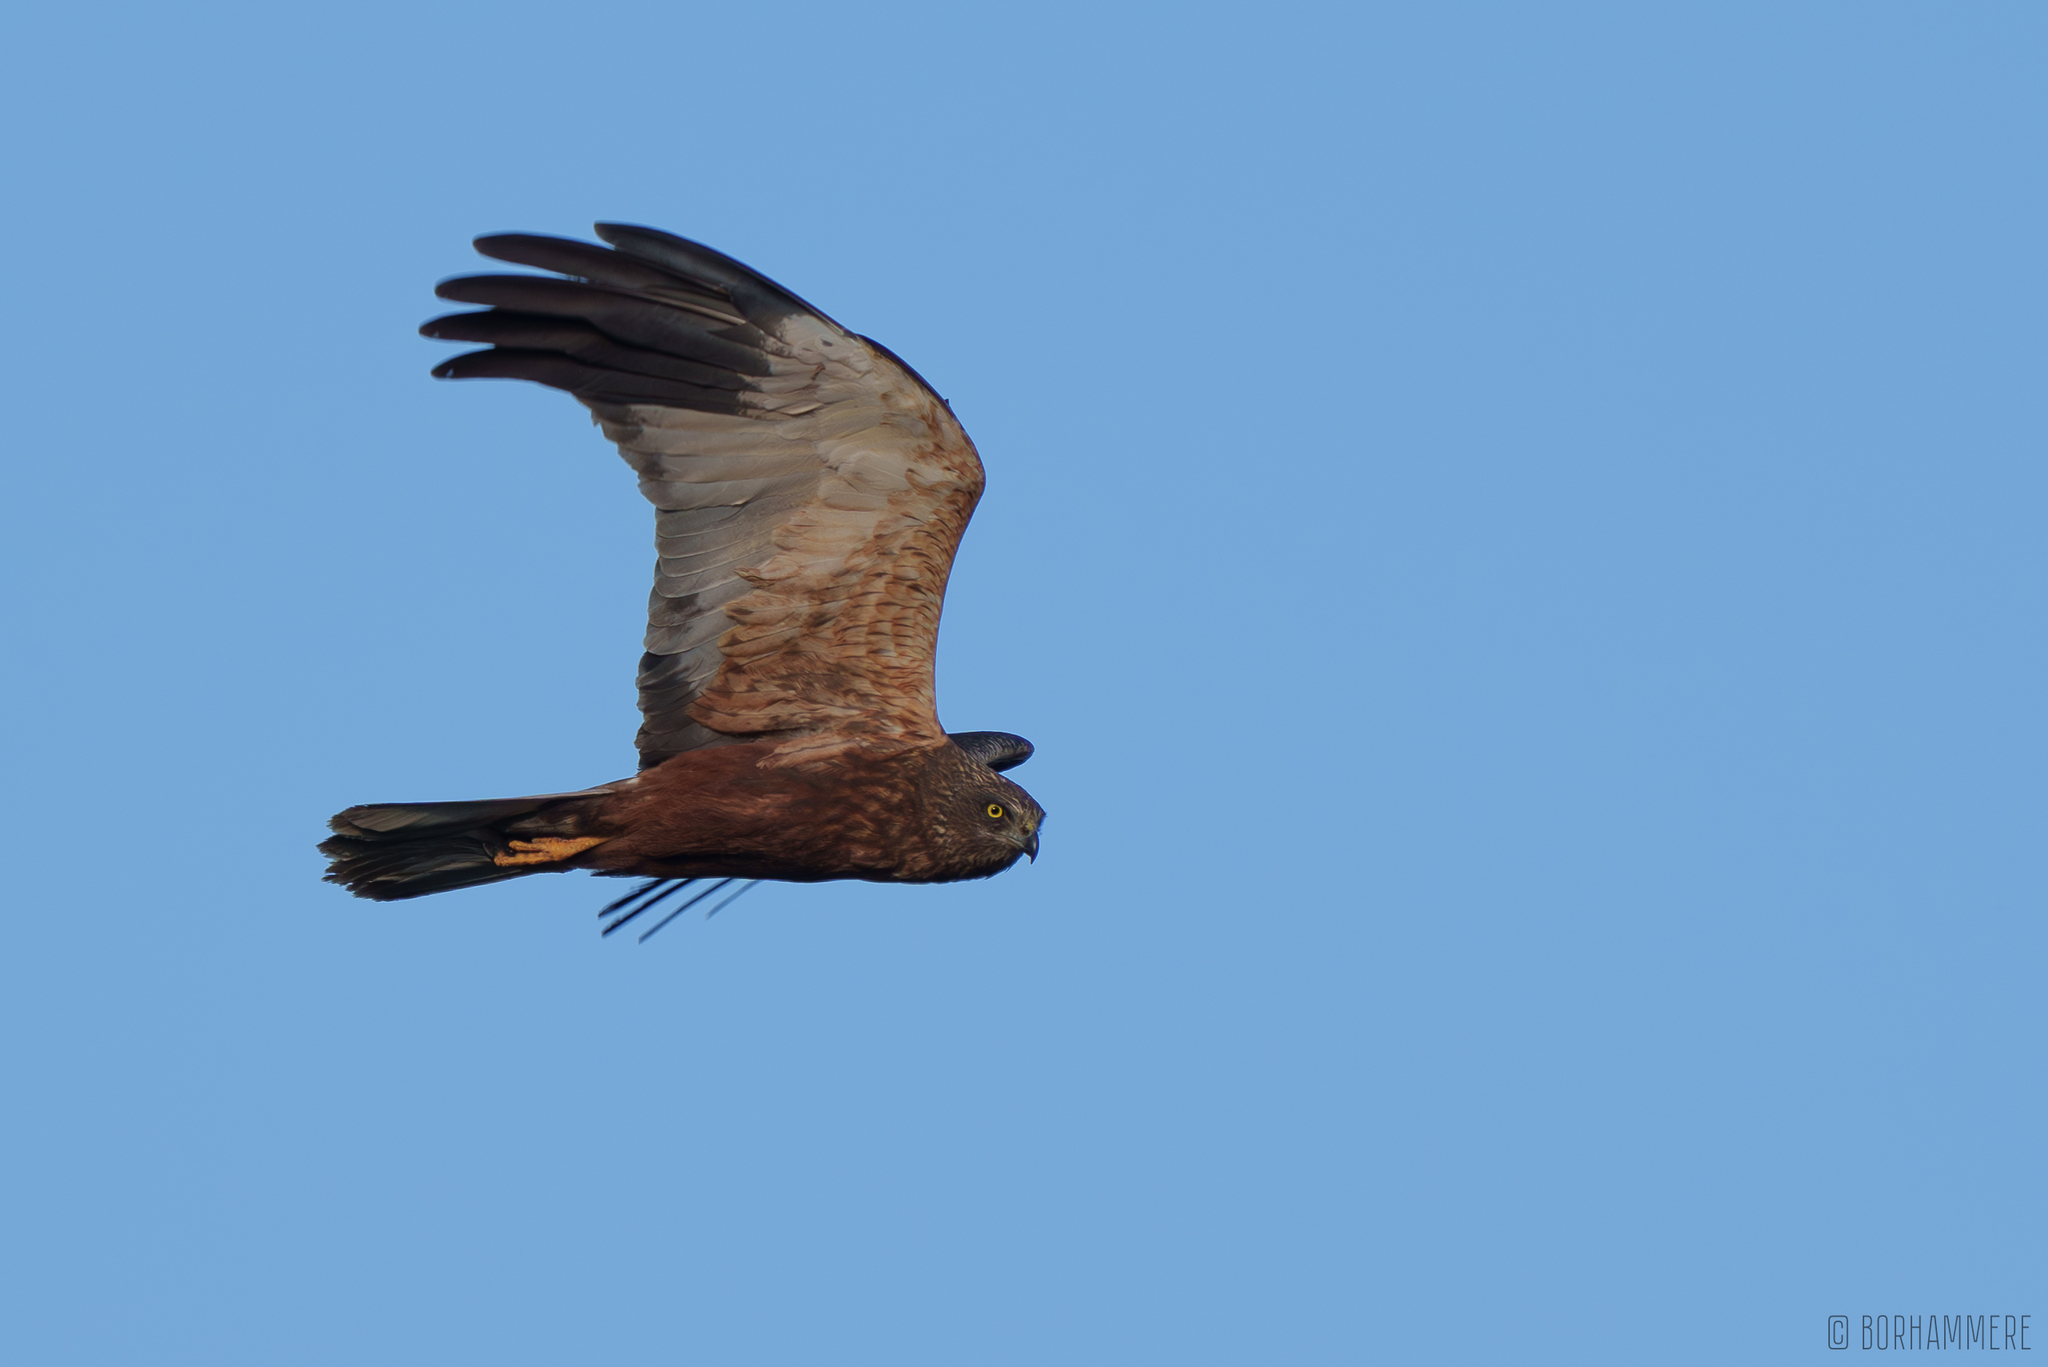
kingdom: Animalia
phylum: Chordata
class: Aves
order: Accipitriformes
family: Accipitridae
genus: Circus
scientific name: Circus aeruginosus
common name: Western marsh harrier
